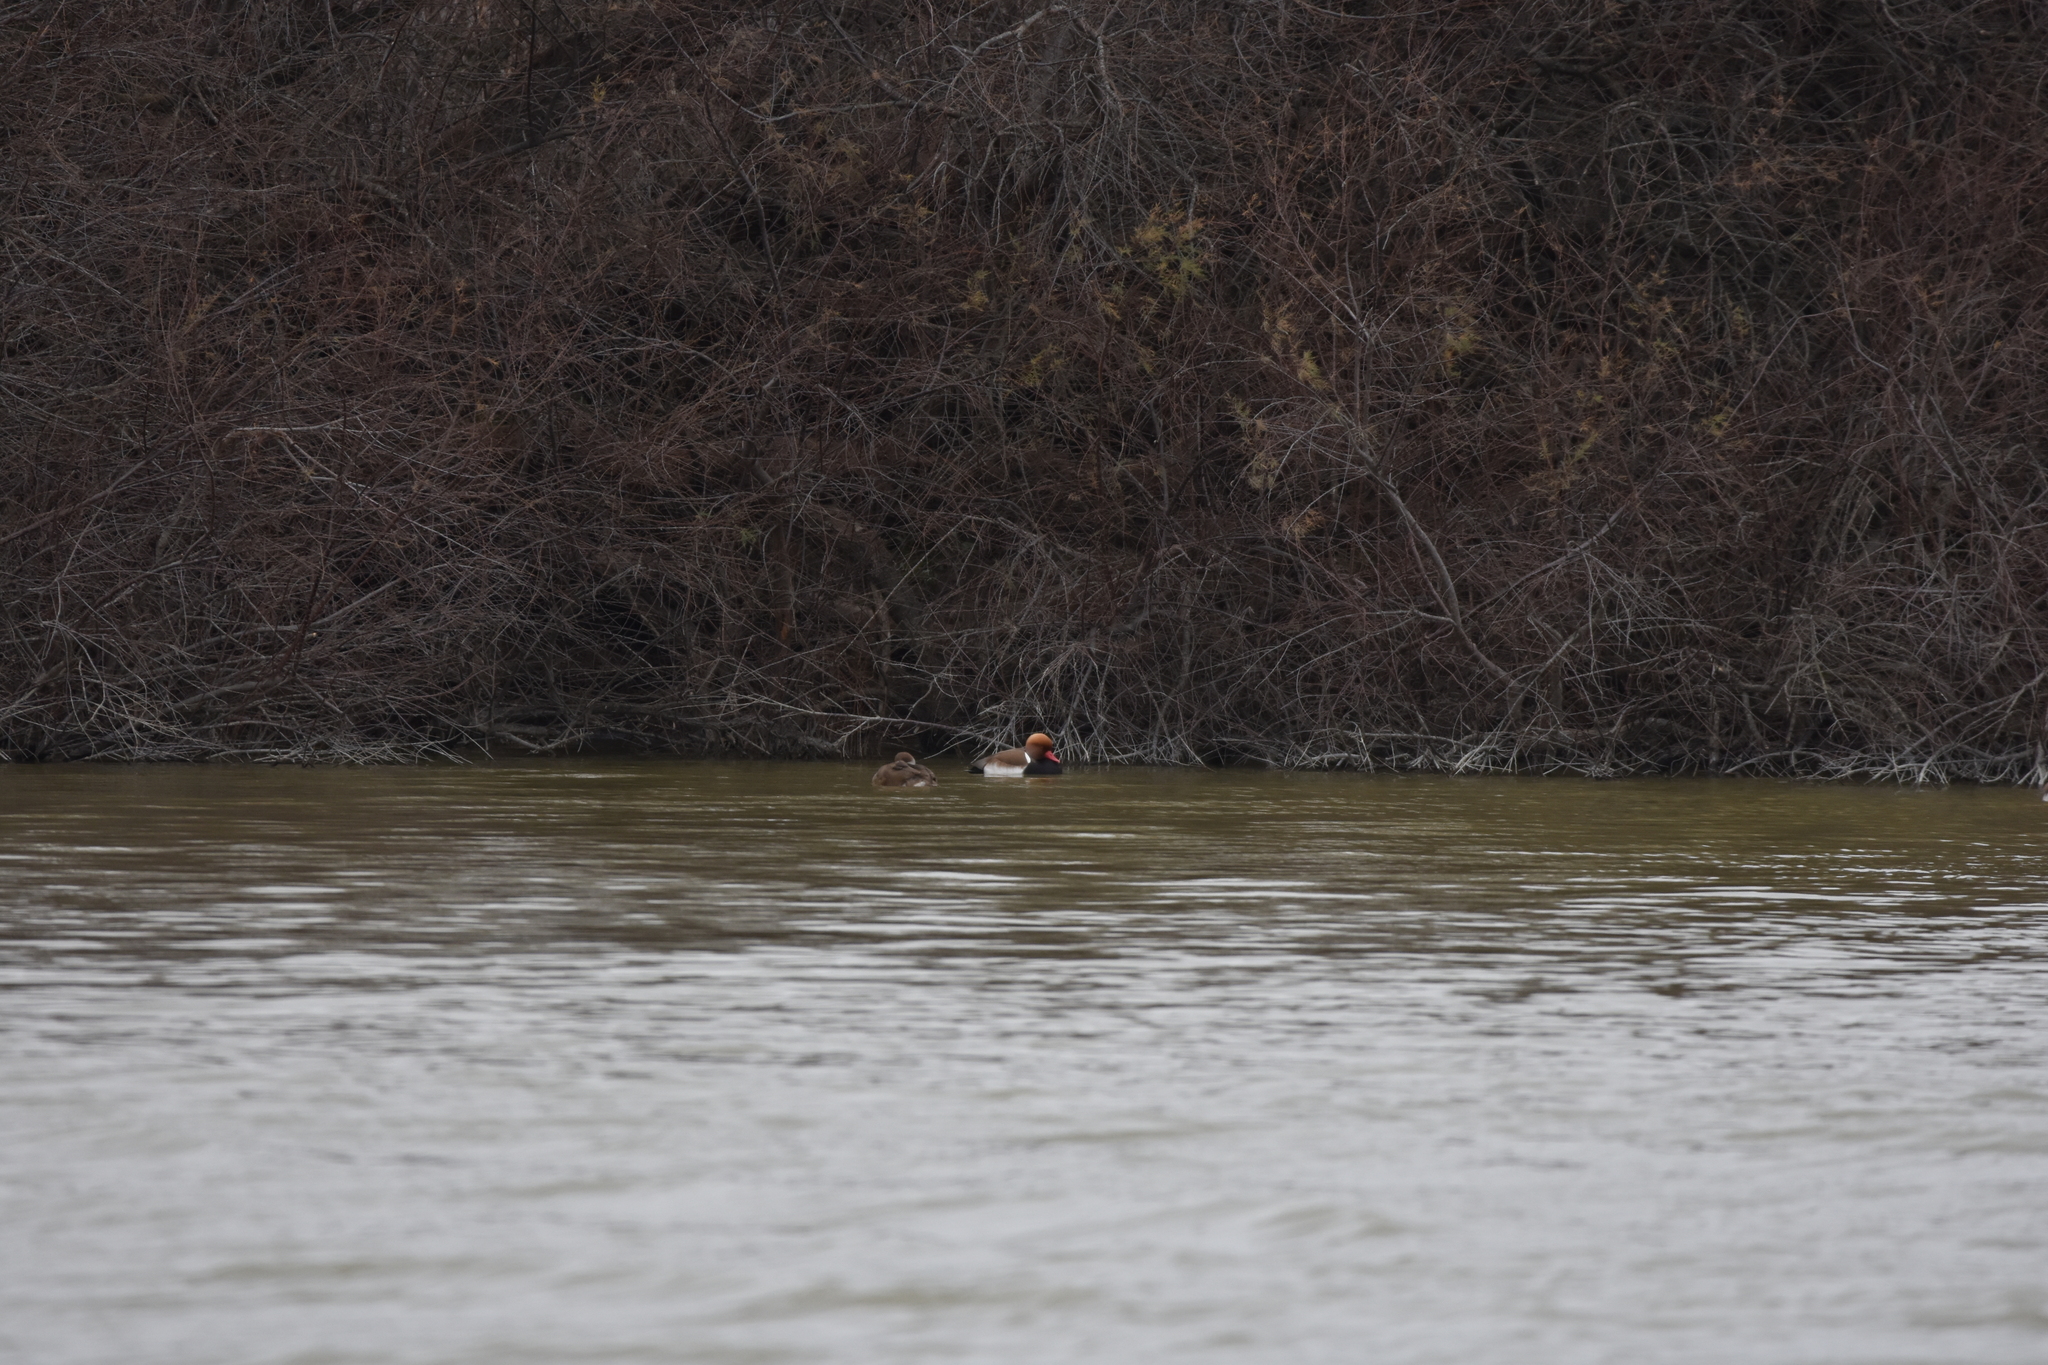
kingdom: Animalia
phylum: Chordata
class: Aves
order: Anseriformes
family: Anatidae
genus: Netta
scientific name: Netta rufina
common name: Red-crested pochard
